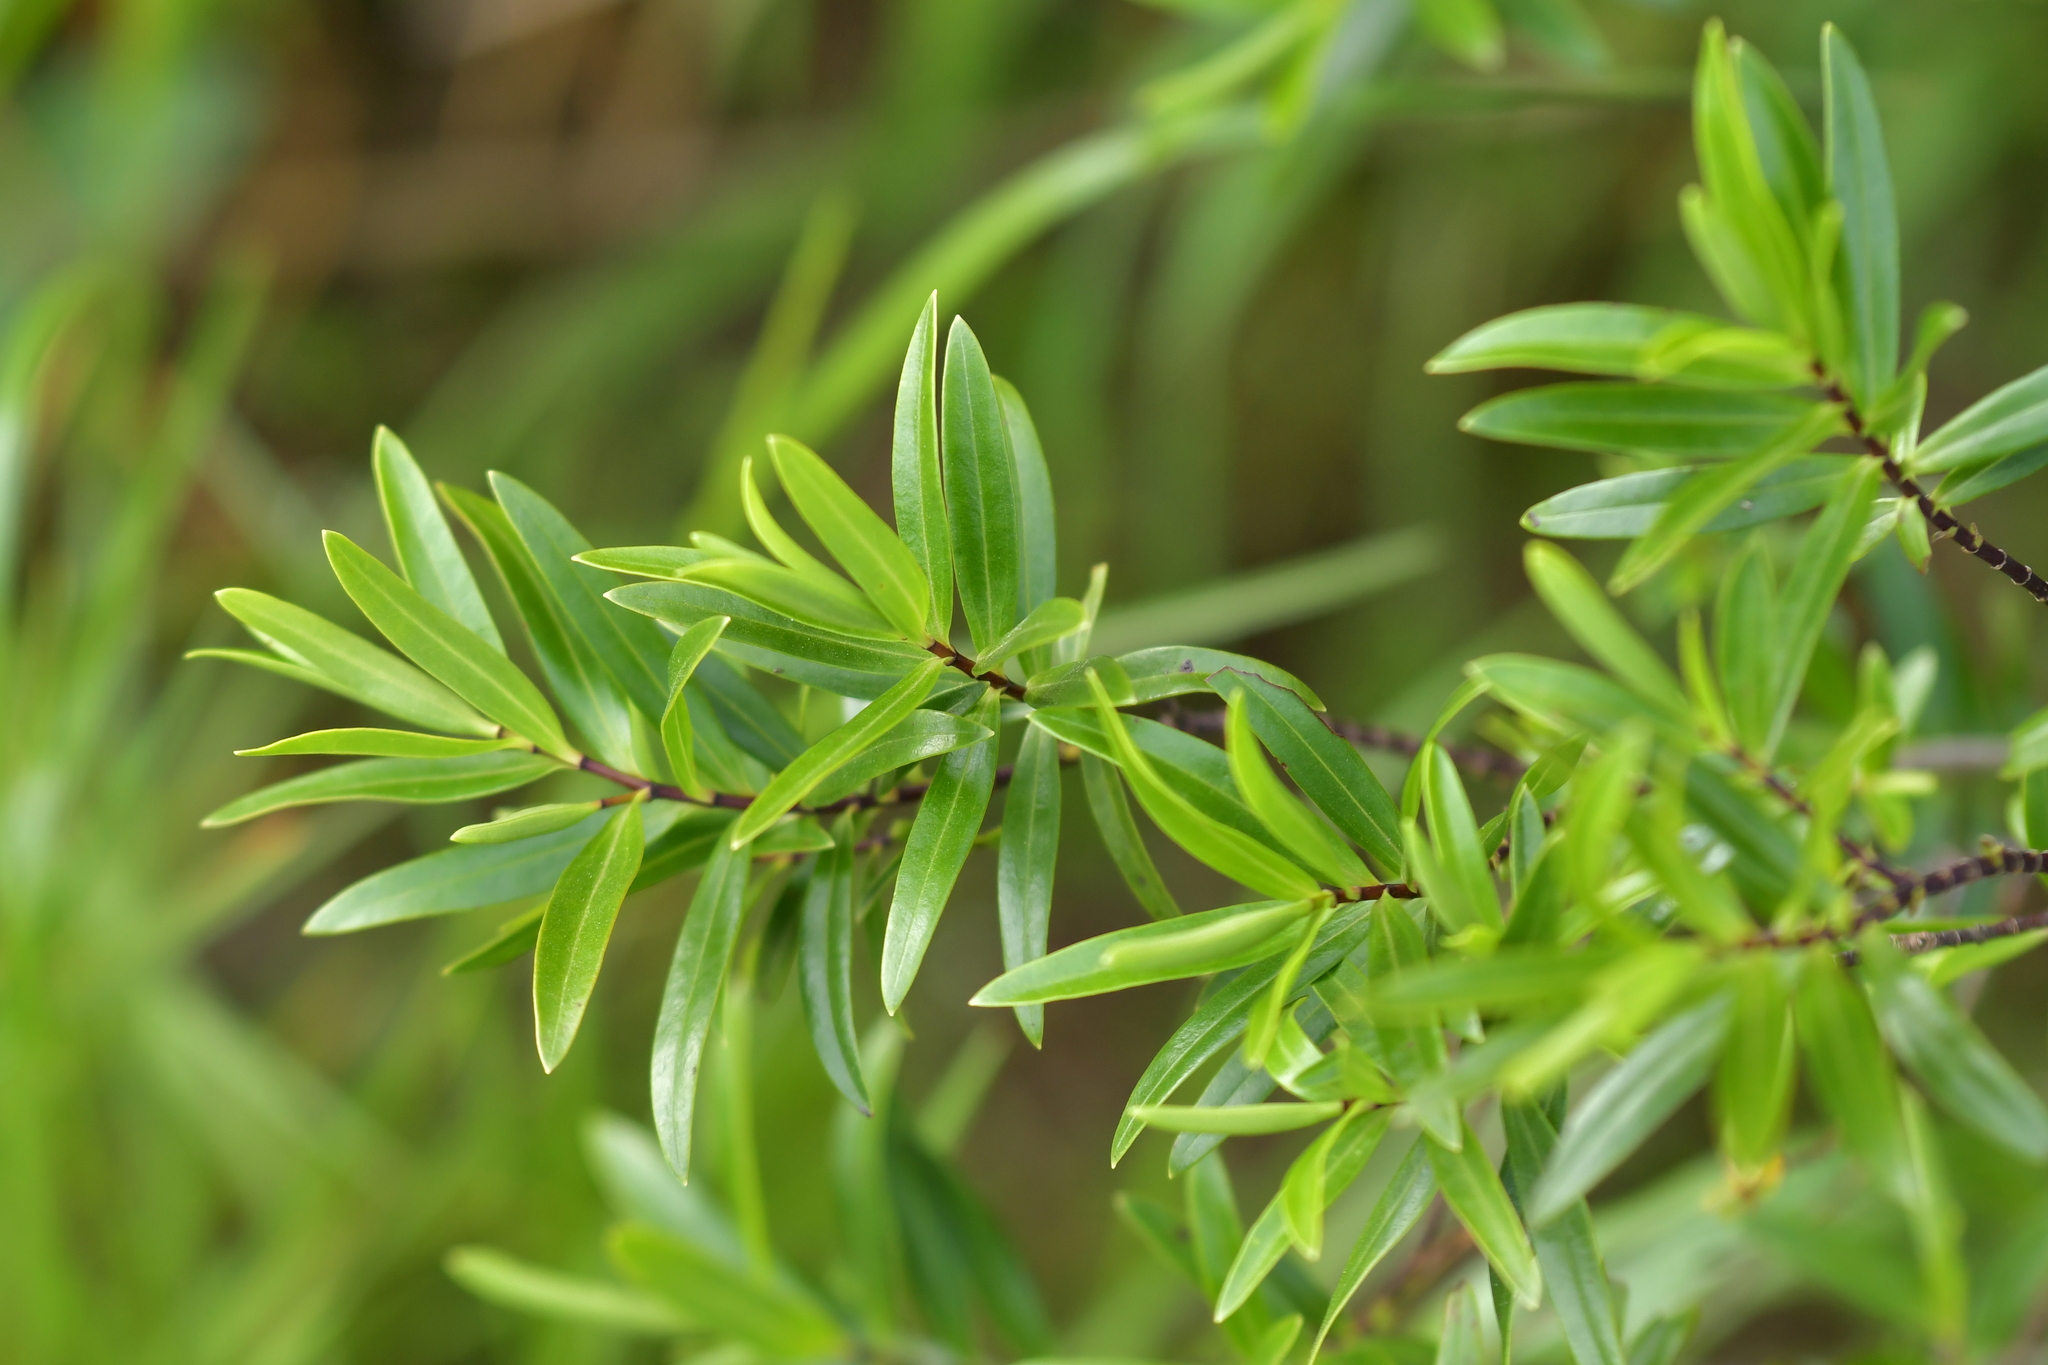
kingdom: Plantae
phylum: Tracheophyta
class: Magnoliopsida
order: Lamiales
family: Plantaginaceae
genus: Veronica
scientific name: Veronica strictissima
